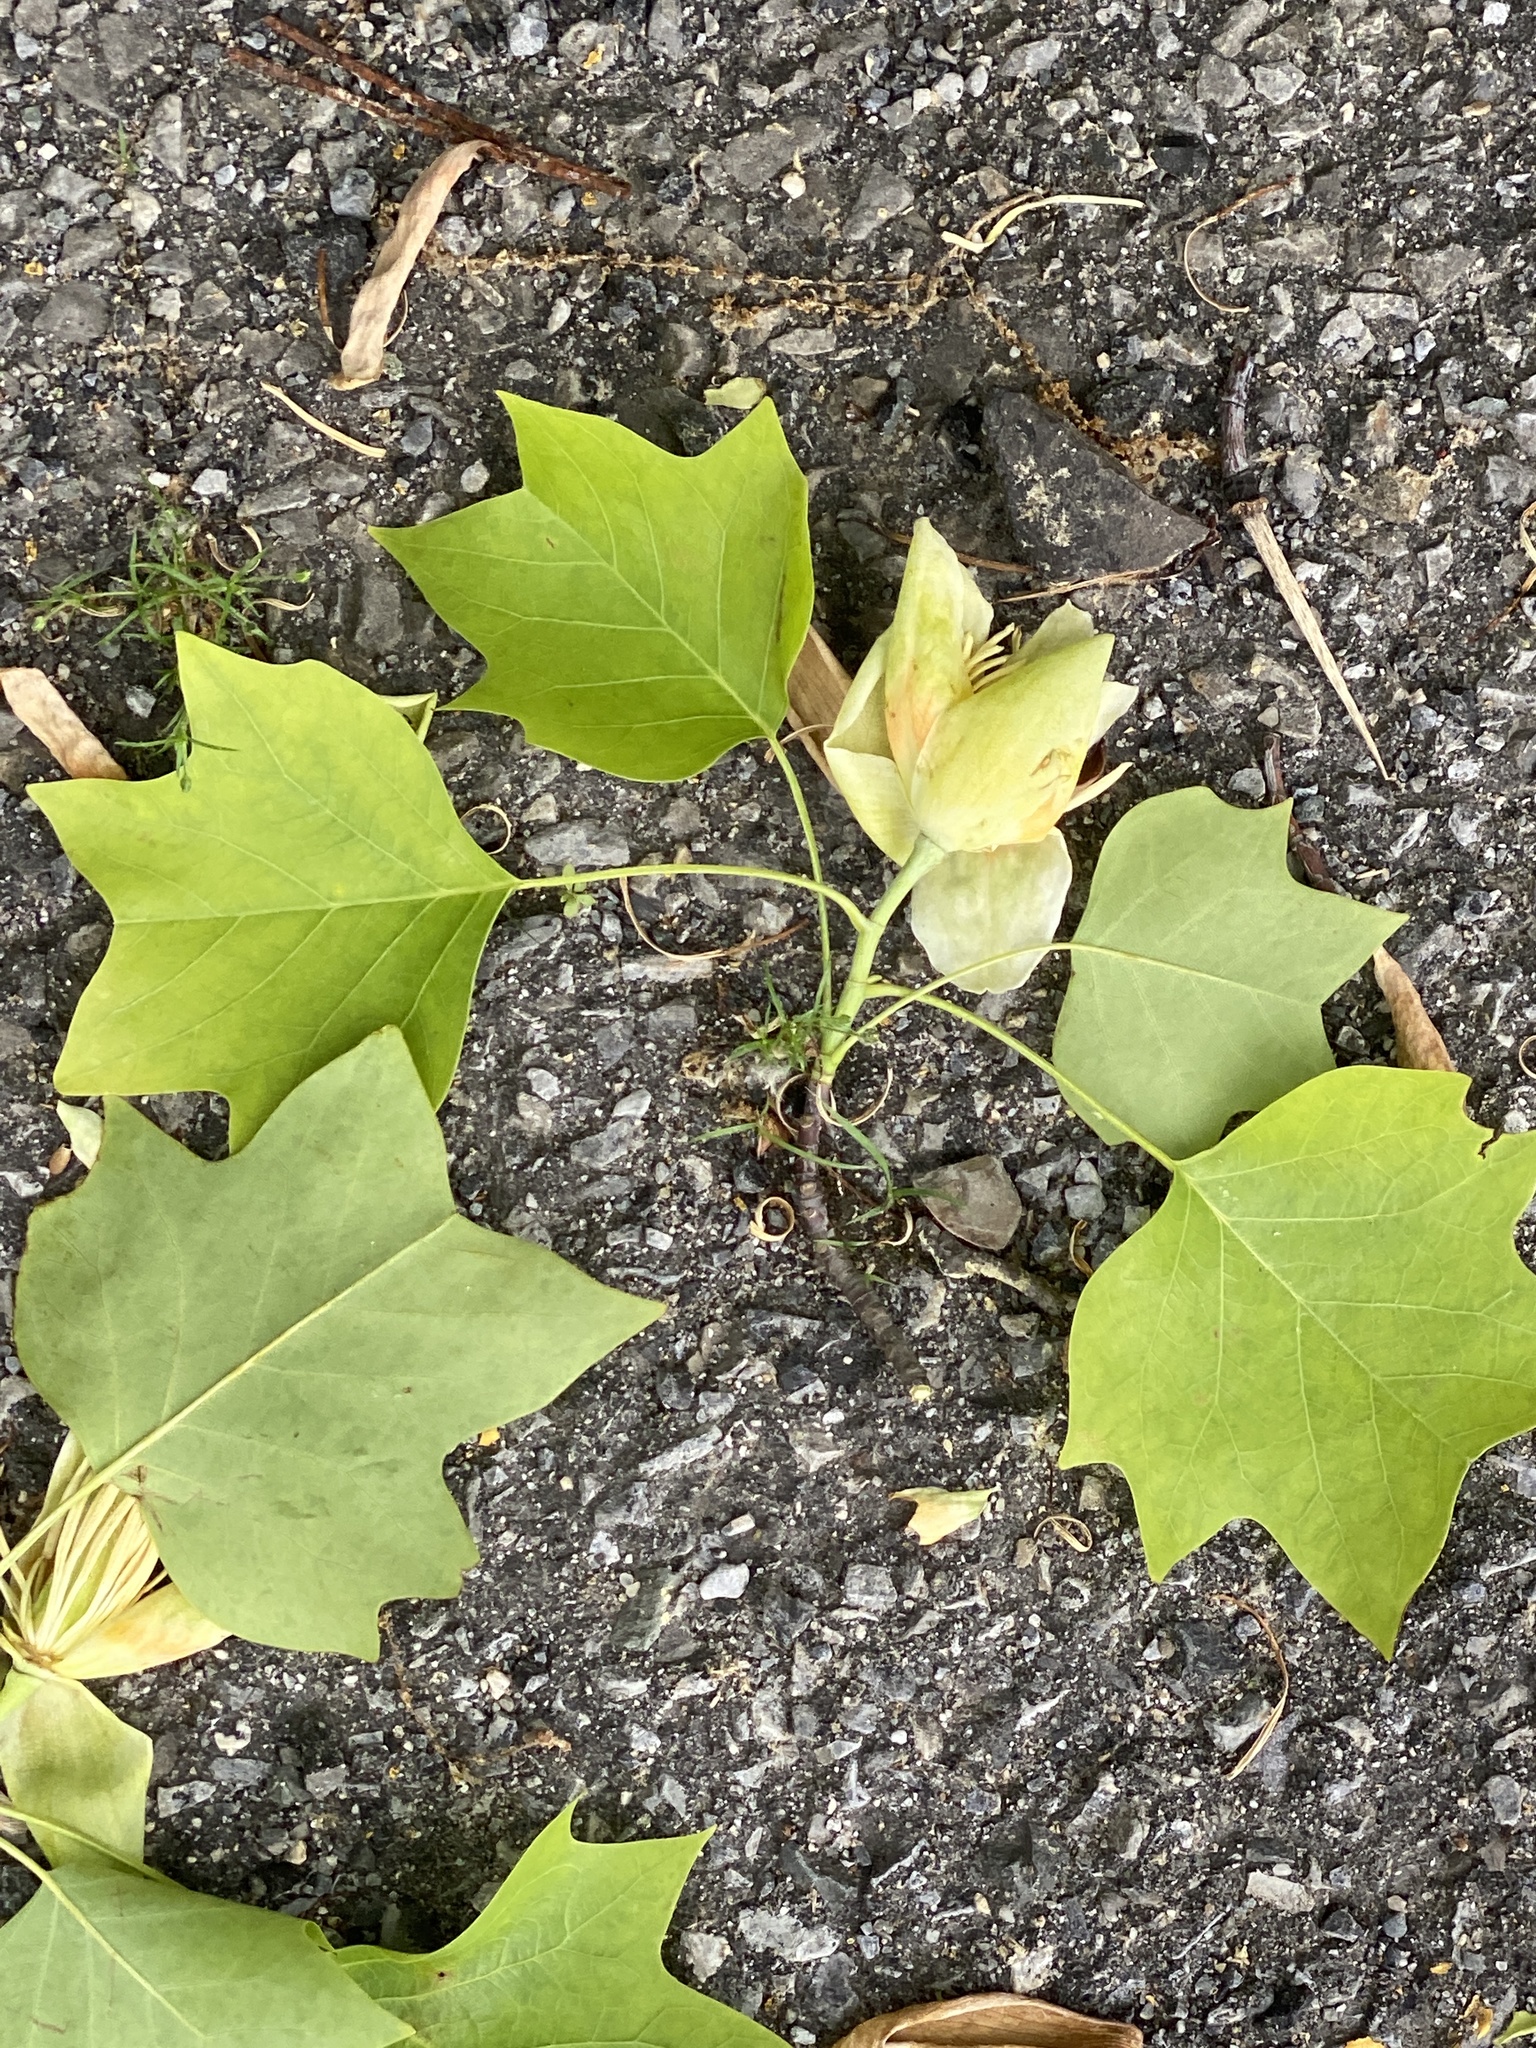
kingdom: Plantae
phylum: Tracheophyta
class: Magnoliopsida
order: Magnoliales
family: Magnoliaceae
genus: Liriodendron
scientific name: Liriodendron tulipifera
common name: Tulip tree
